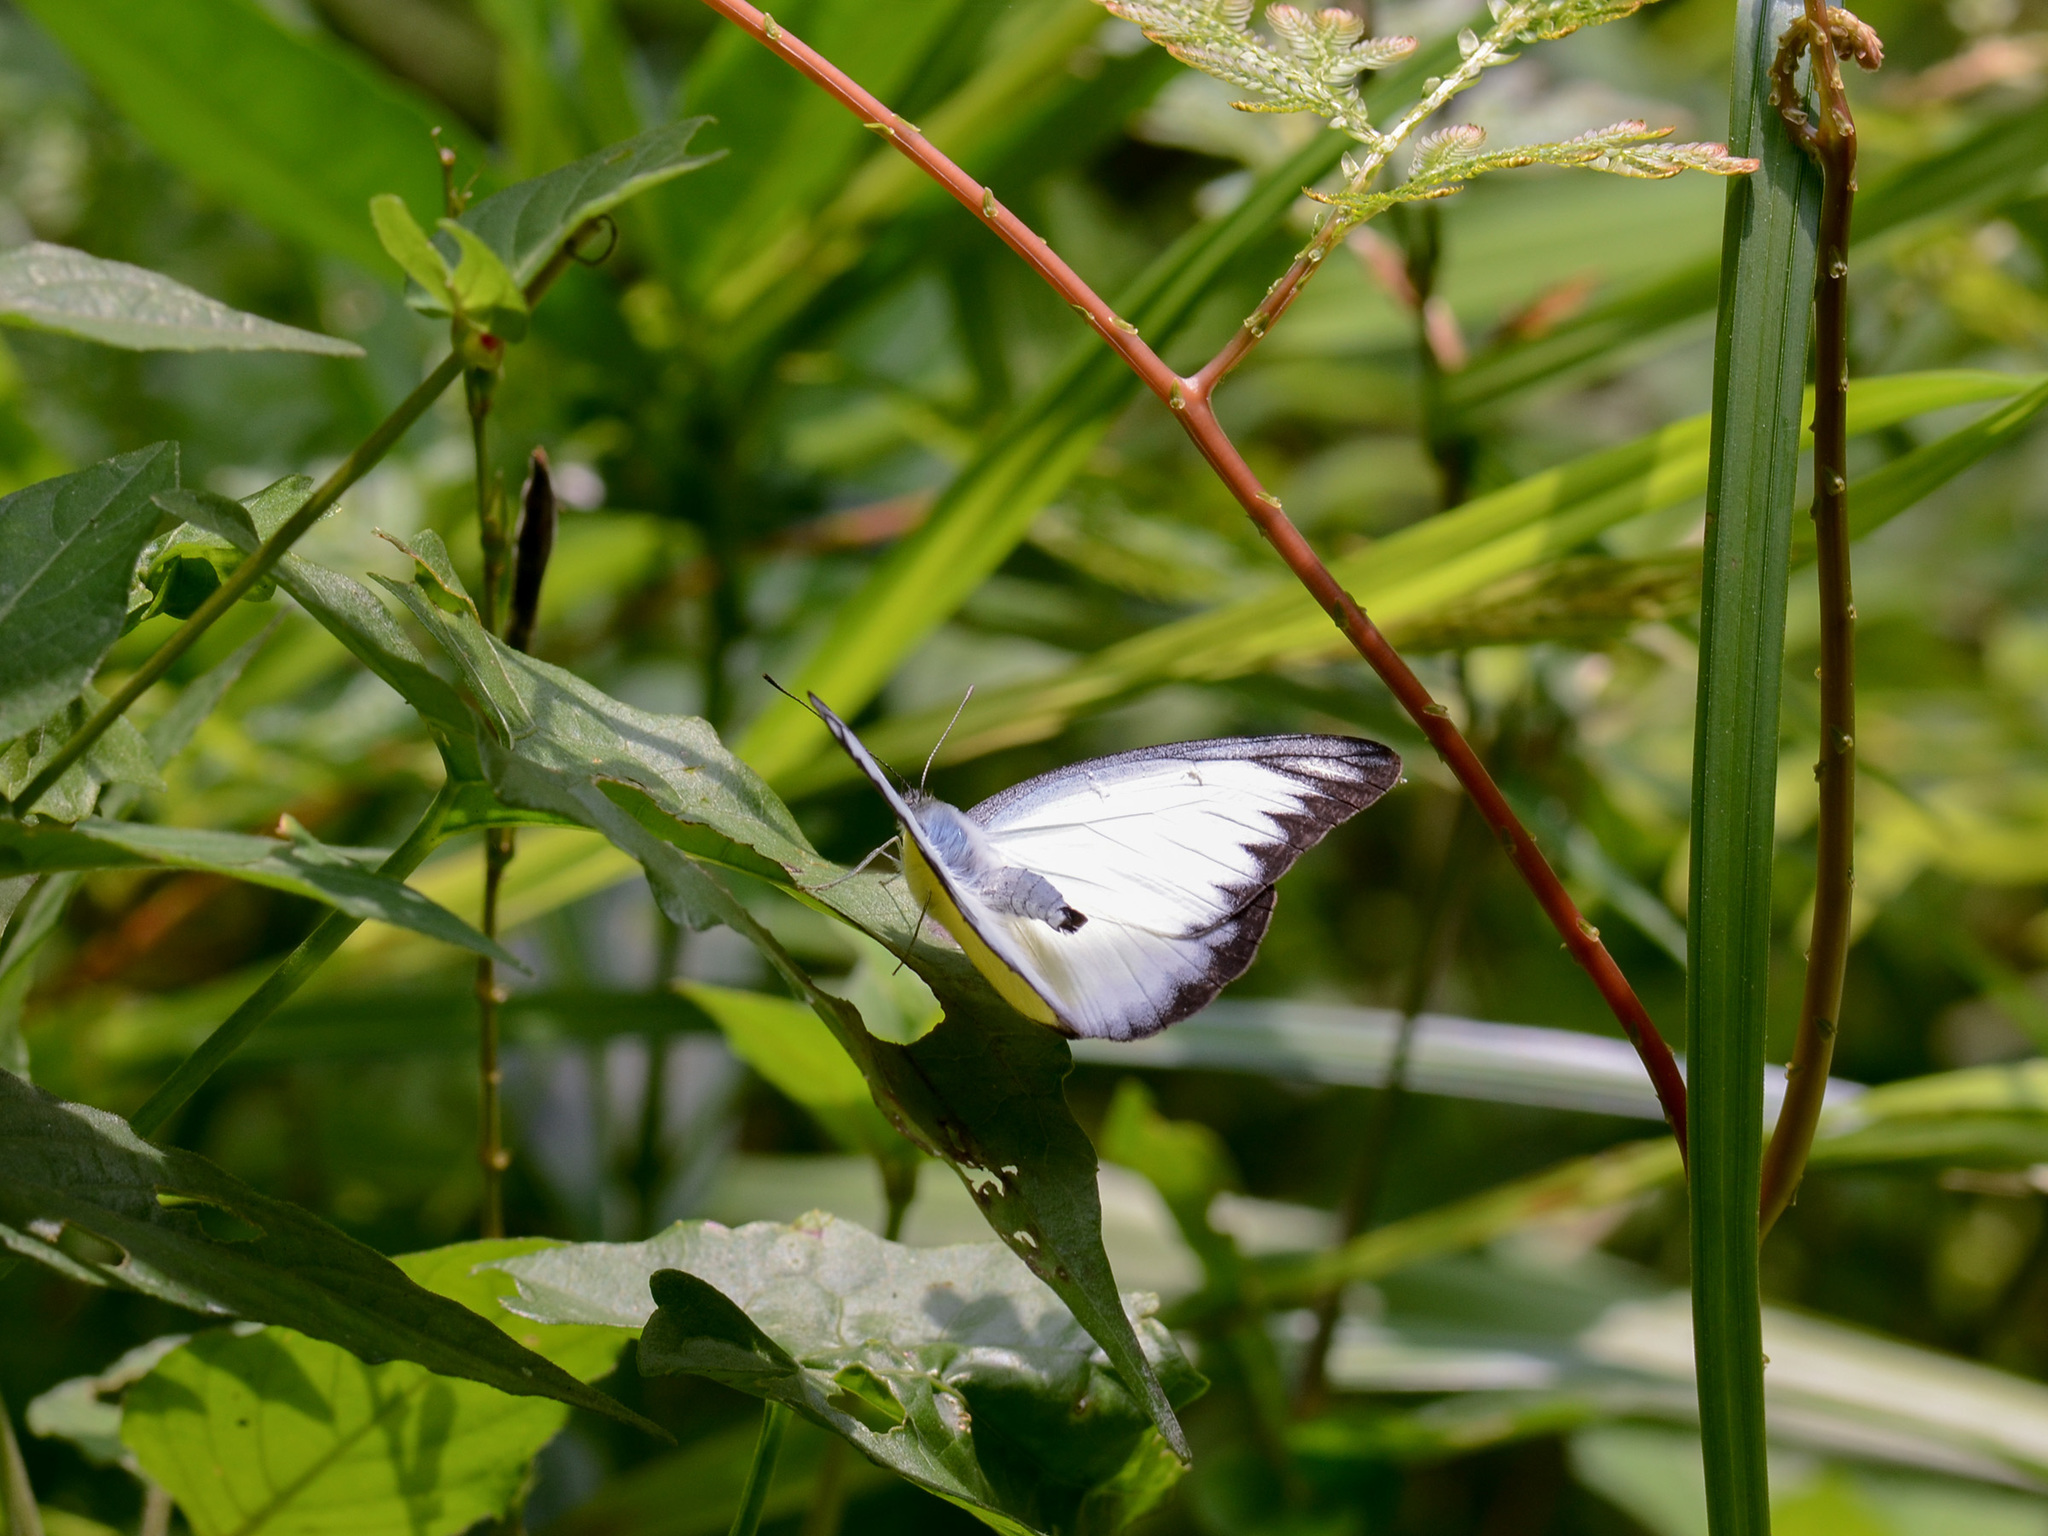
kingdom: Animalia
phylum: Arthropoda
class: Insecta
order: Lepidoptera
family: Pieridae
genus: Appias
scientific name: Appias lyncida
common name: Chocolate albatross
